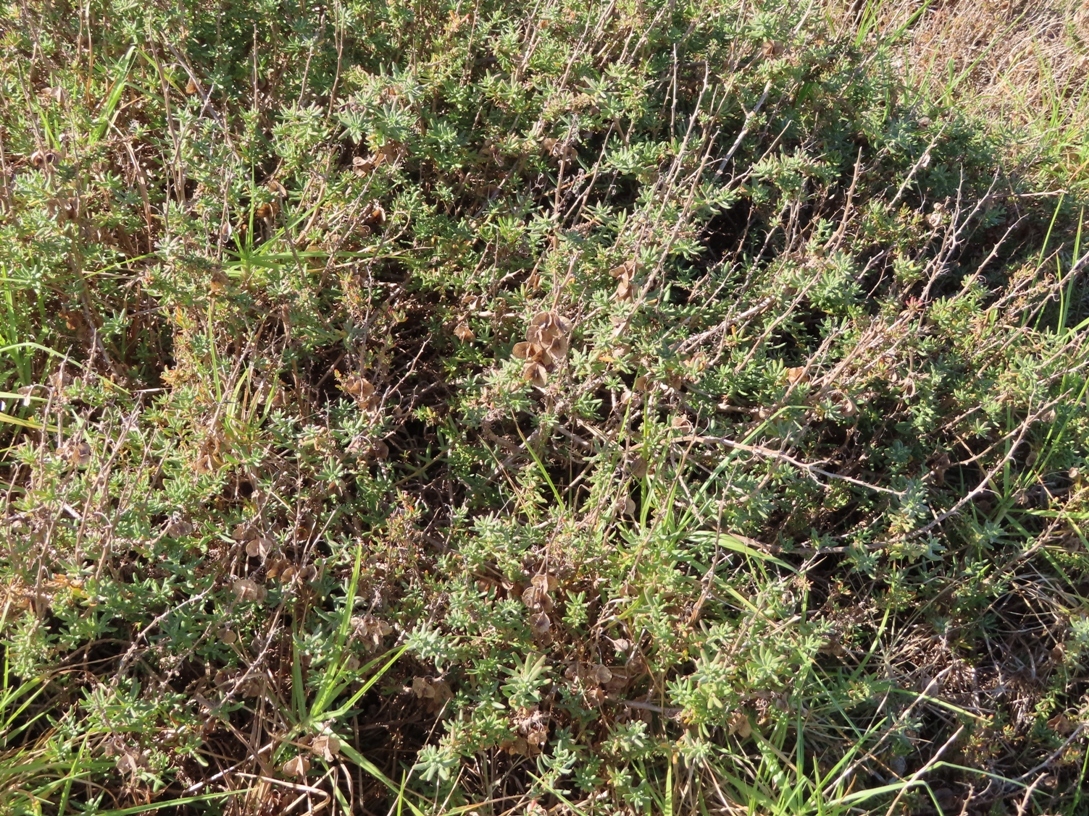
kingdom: Plantae
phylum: Tracheophyta
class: Magnoliopsida
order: Caryophyllales
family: Aizoaceae
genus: Tetragonia
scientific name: Tetragonia fruticosa
